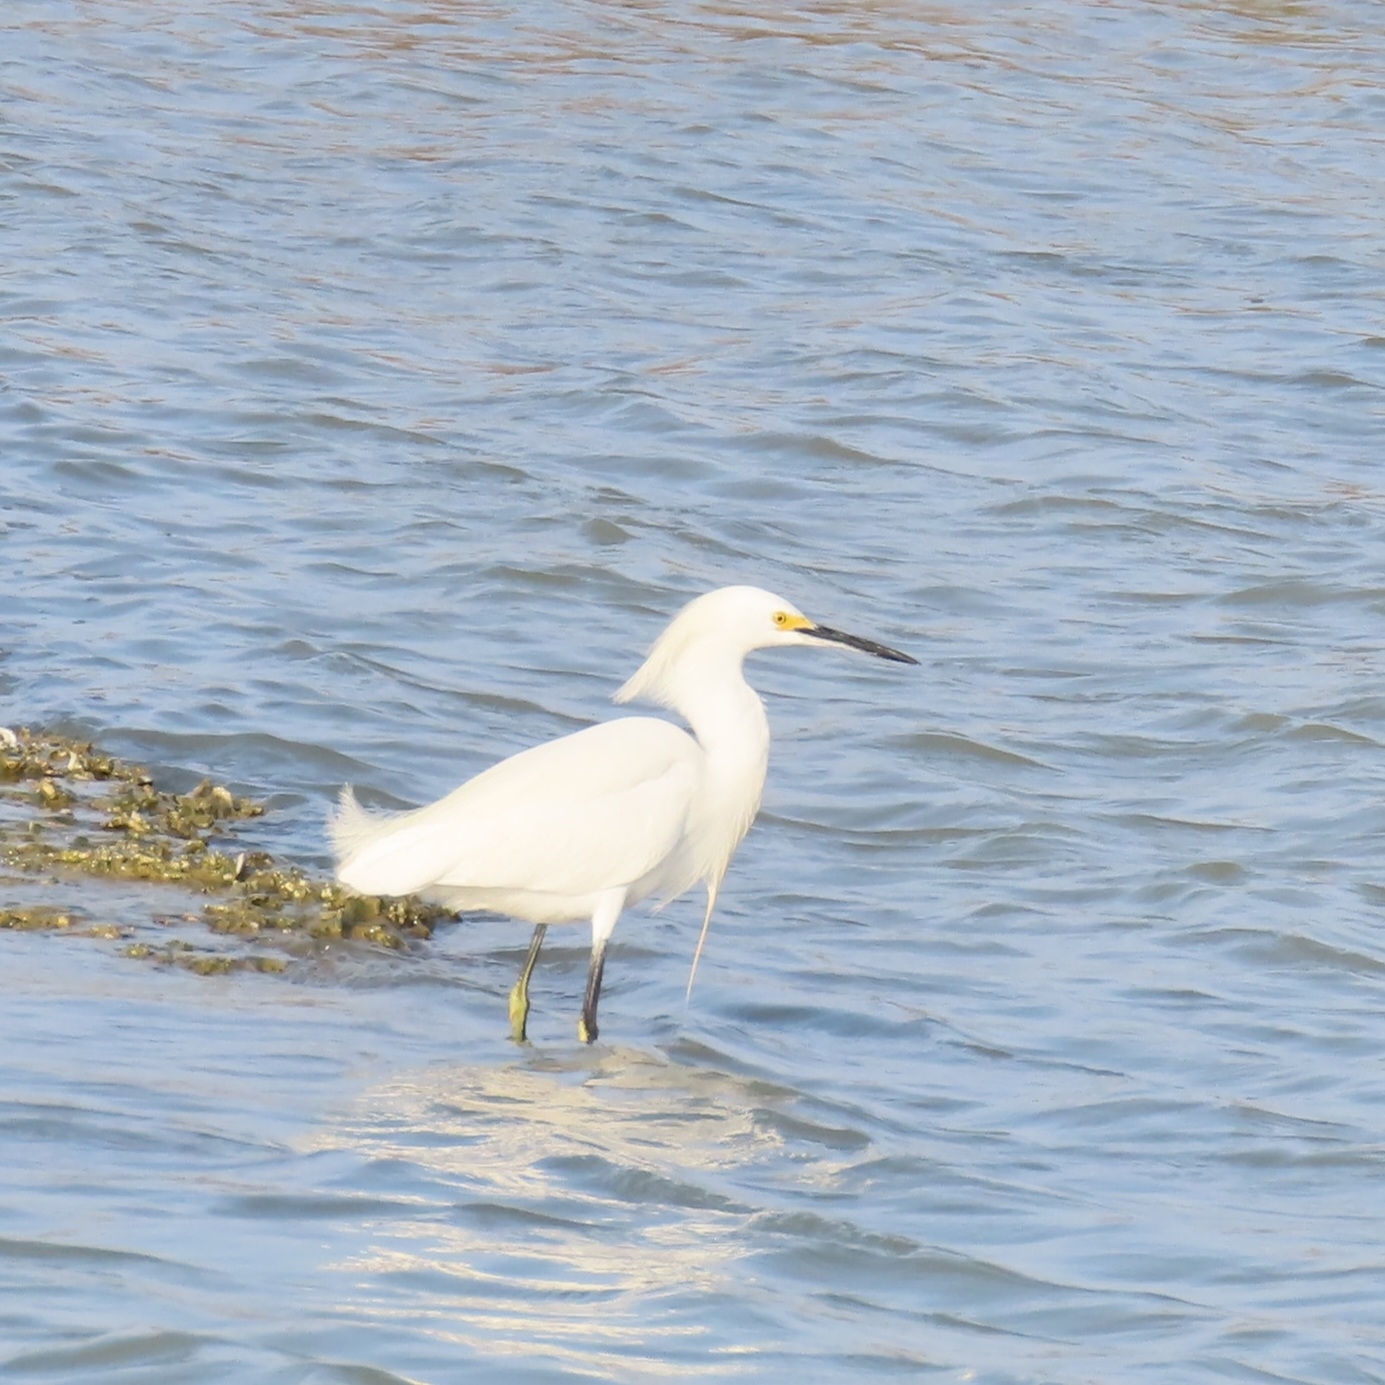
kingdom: Animalia
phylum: Chordata
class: Aves
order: Pelecaniformes
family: Ardeidae
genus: Egretta
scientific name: Egretta thula
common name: Snowy egret
